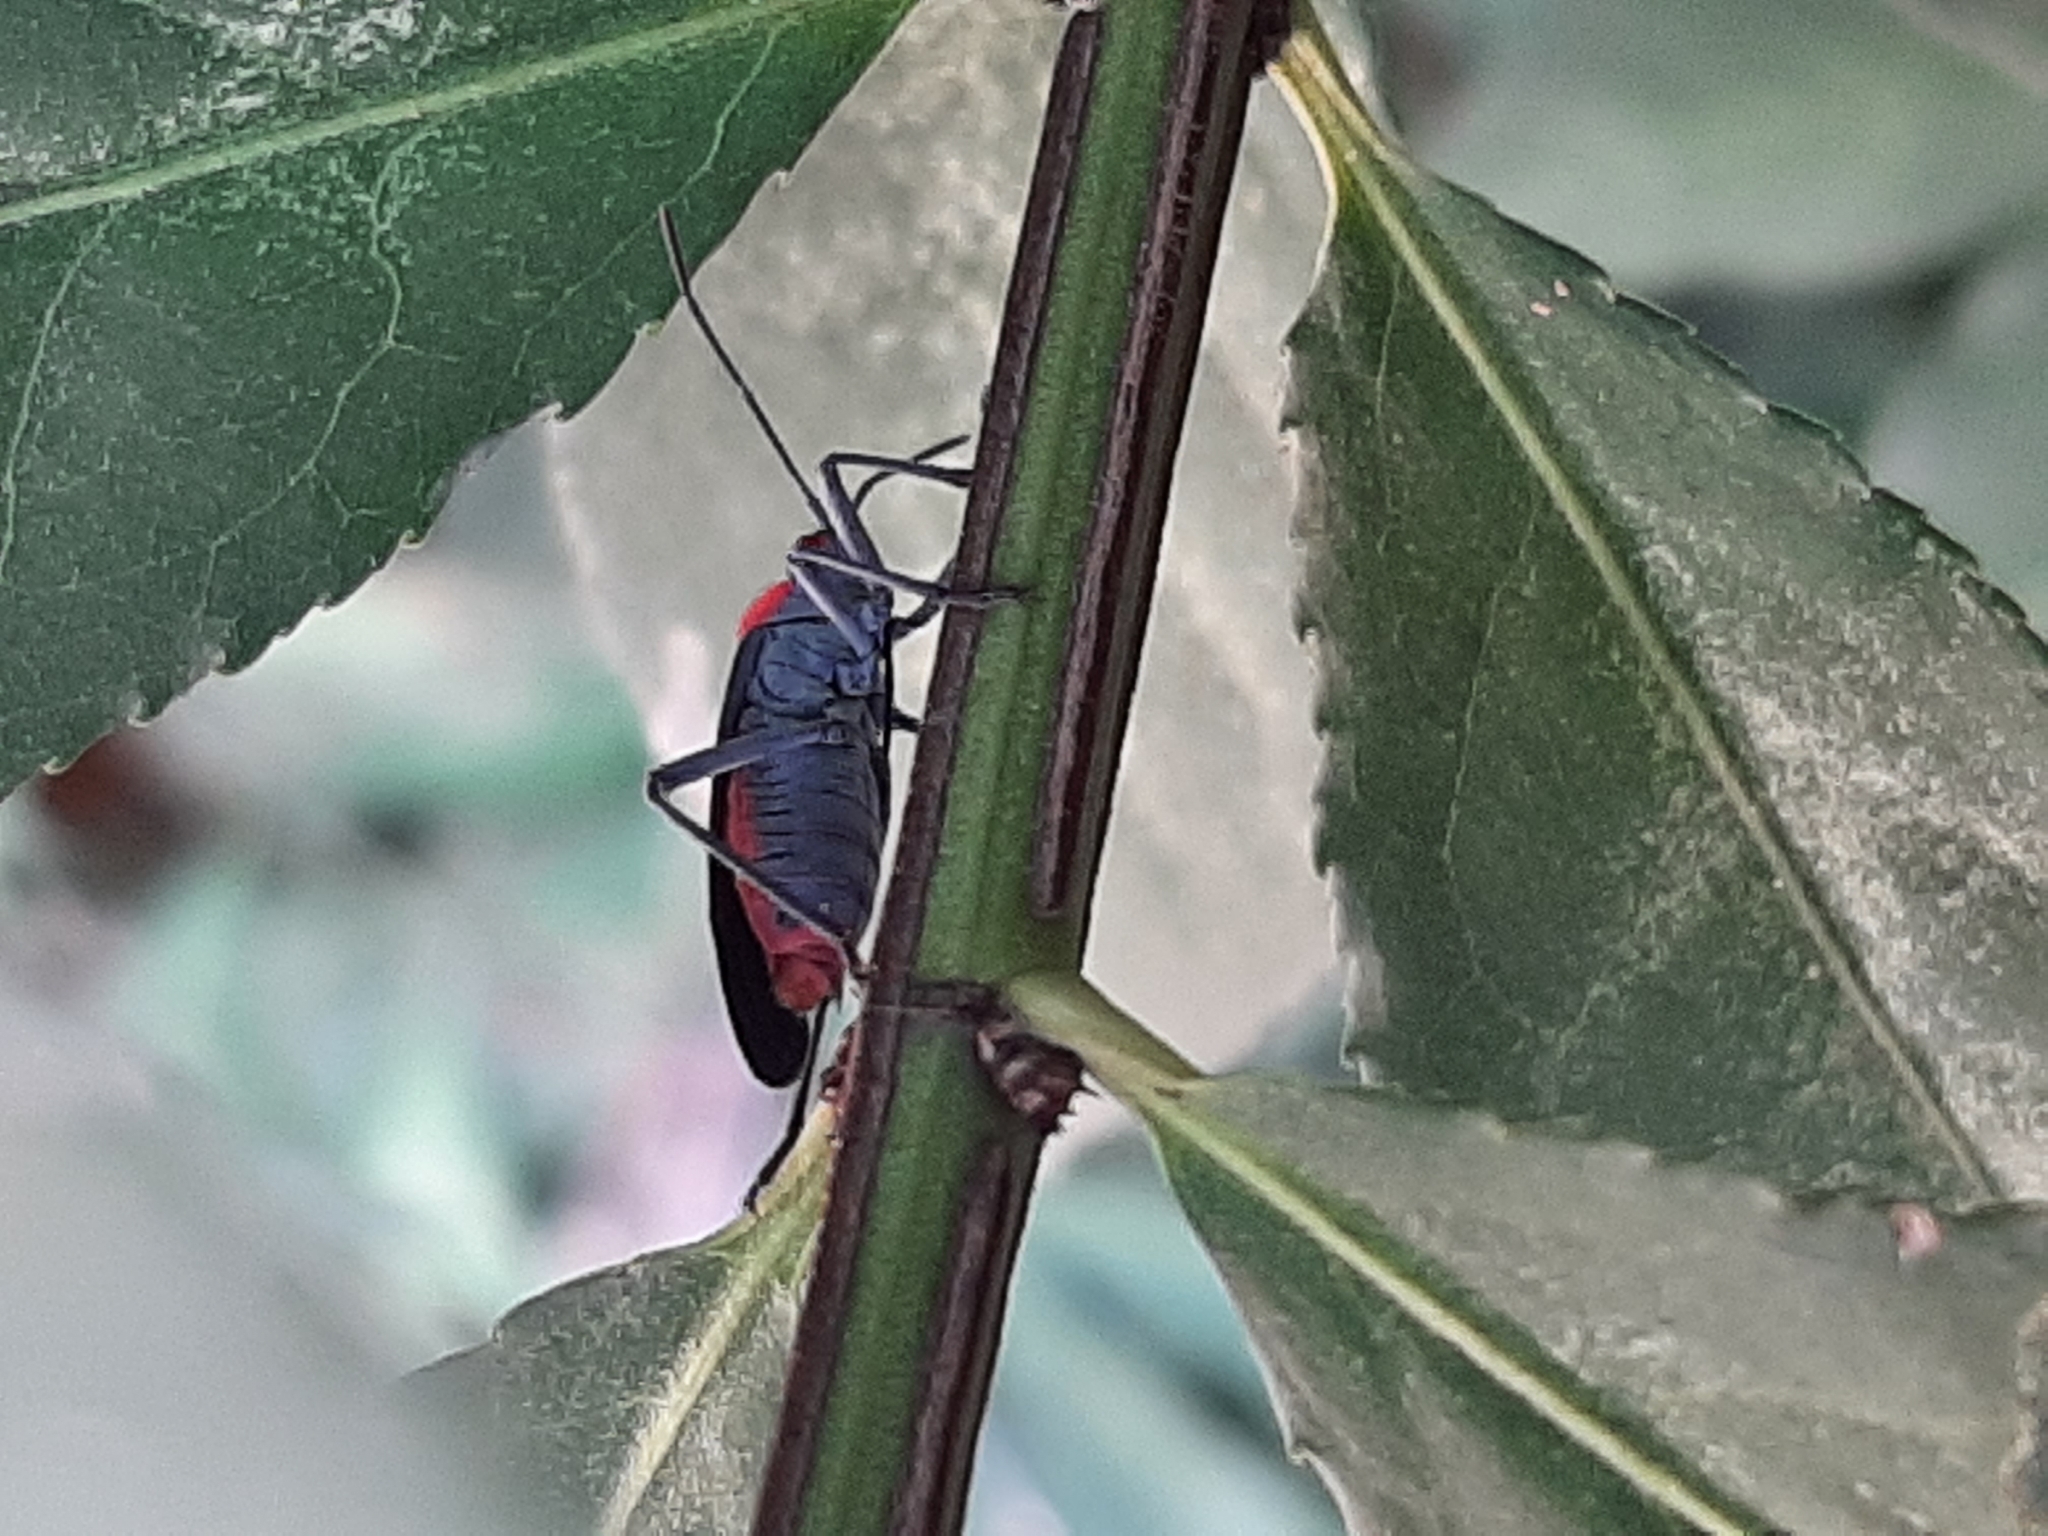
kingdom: Animalia
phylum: Arthropoda
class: Insecta
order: Hemiptera
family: Rhopalidae
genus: Jadera
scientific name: Jadera haematoloma
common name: Red-shouldered bug
